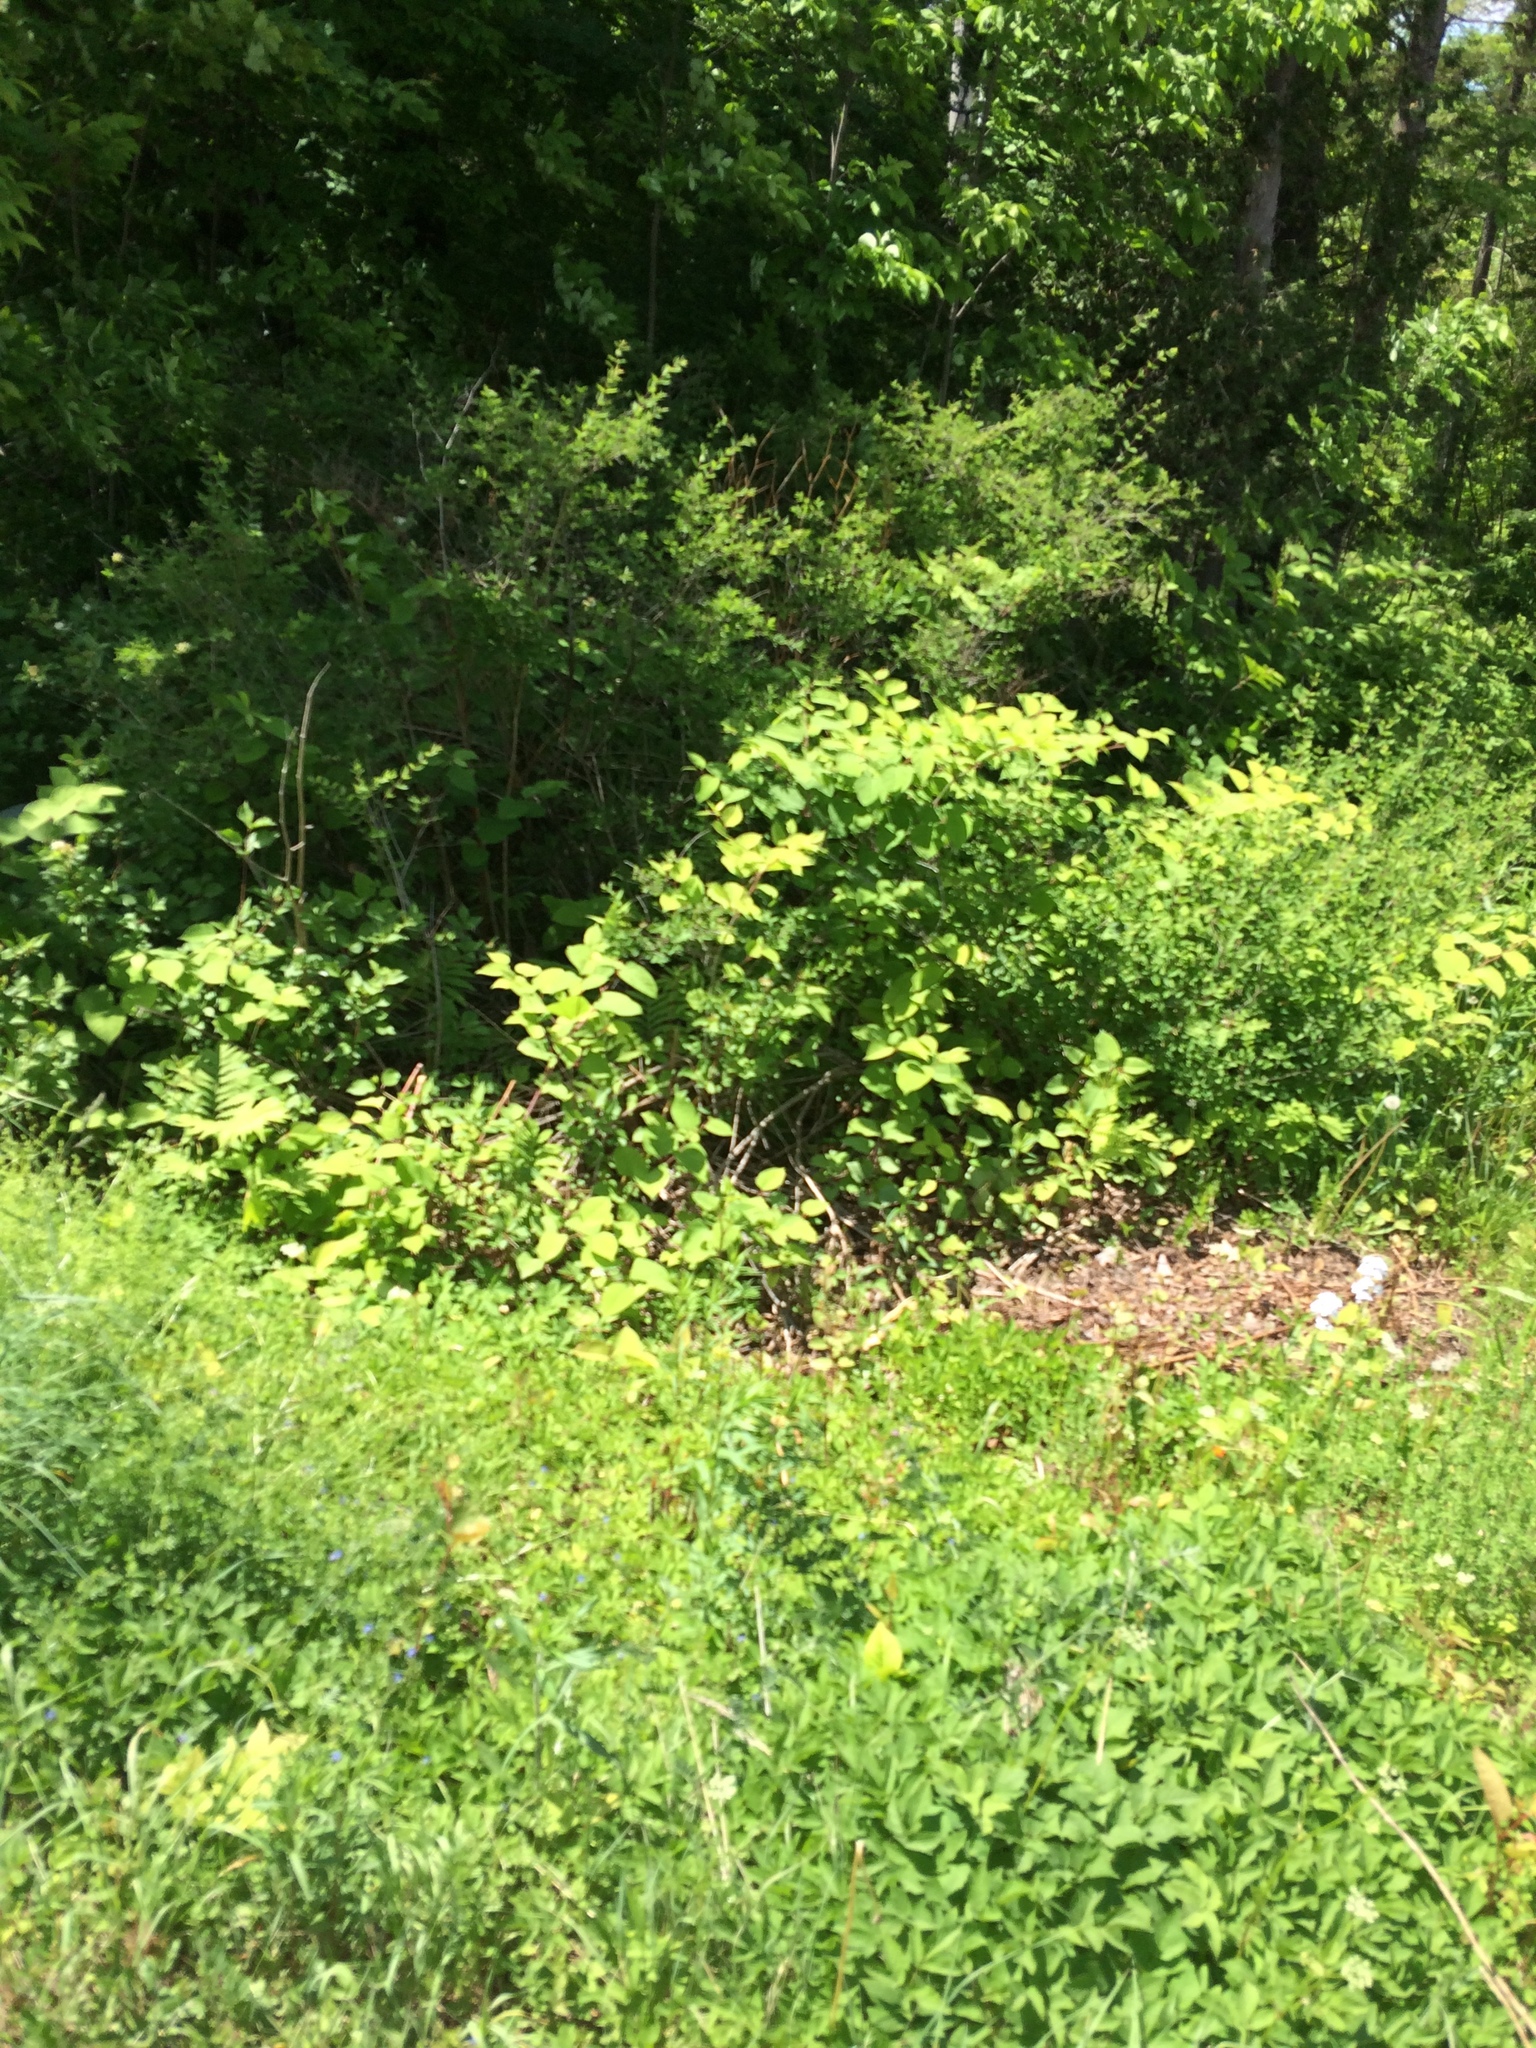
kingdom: Plantae
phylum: Tracheophyta
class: Magnoliopsida
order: Caryophyllales
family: Polygonaceae
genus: Reynoutria
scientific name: Reynoutria japonica
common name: Japanese knotweed
